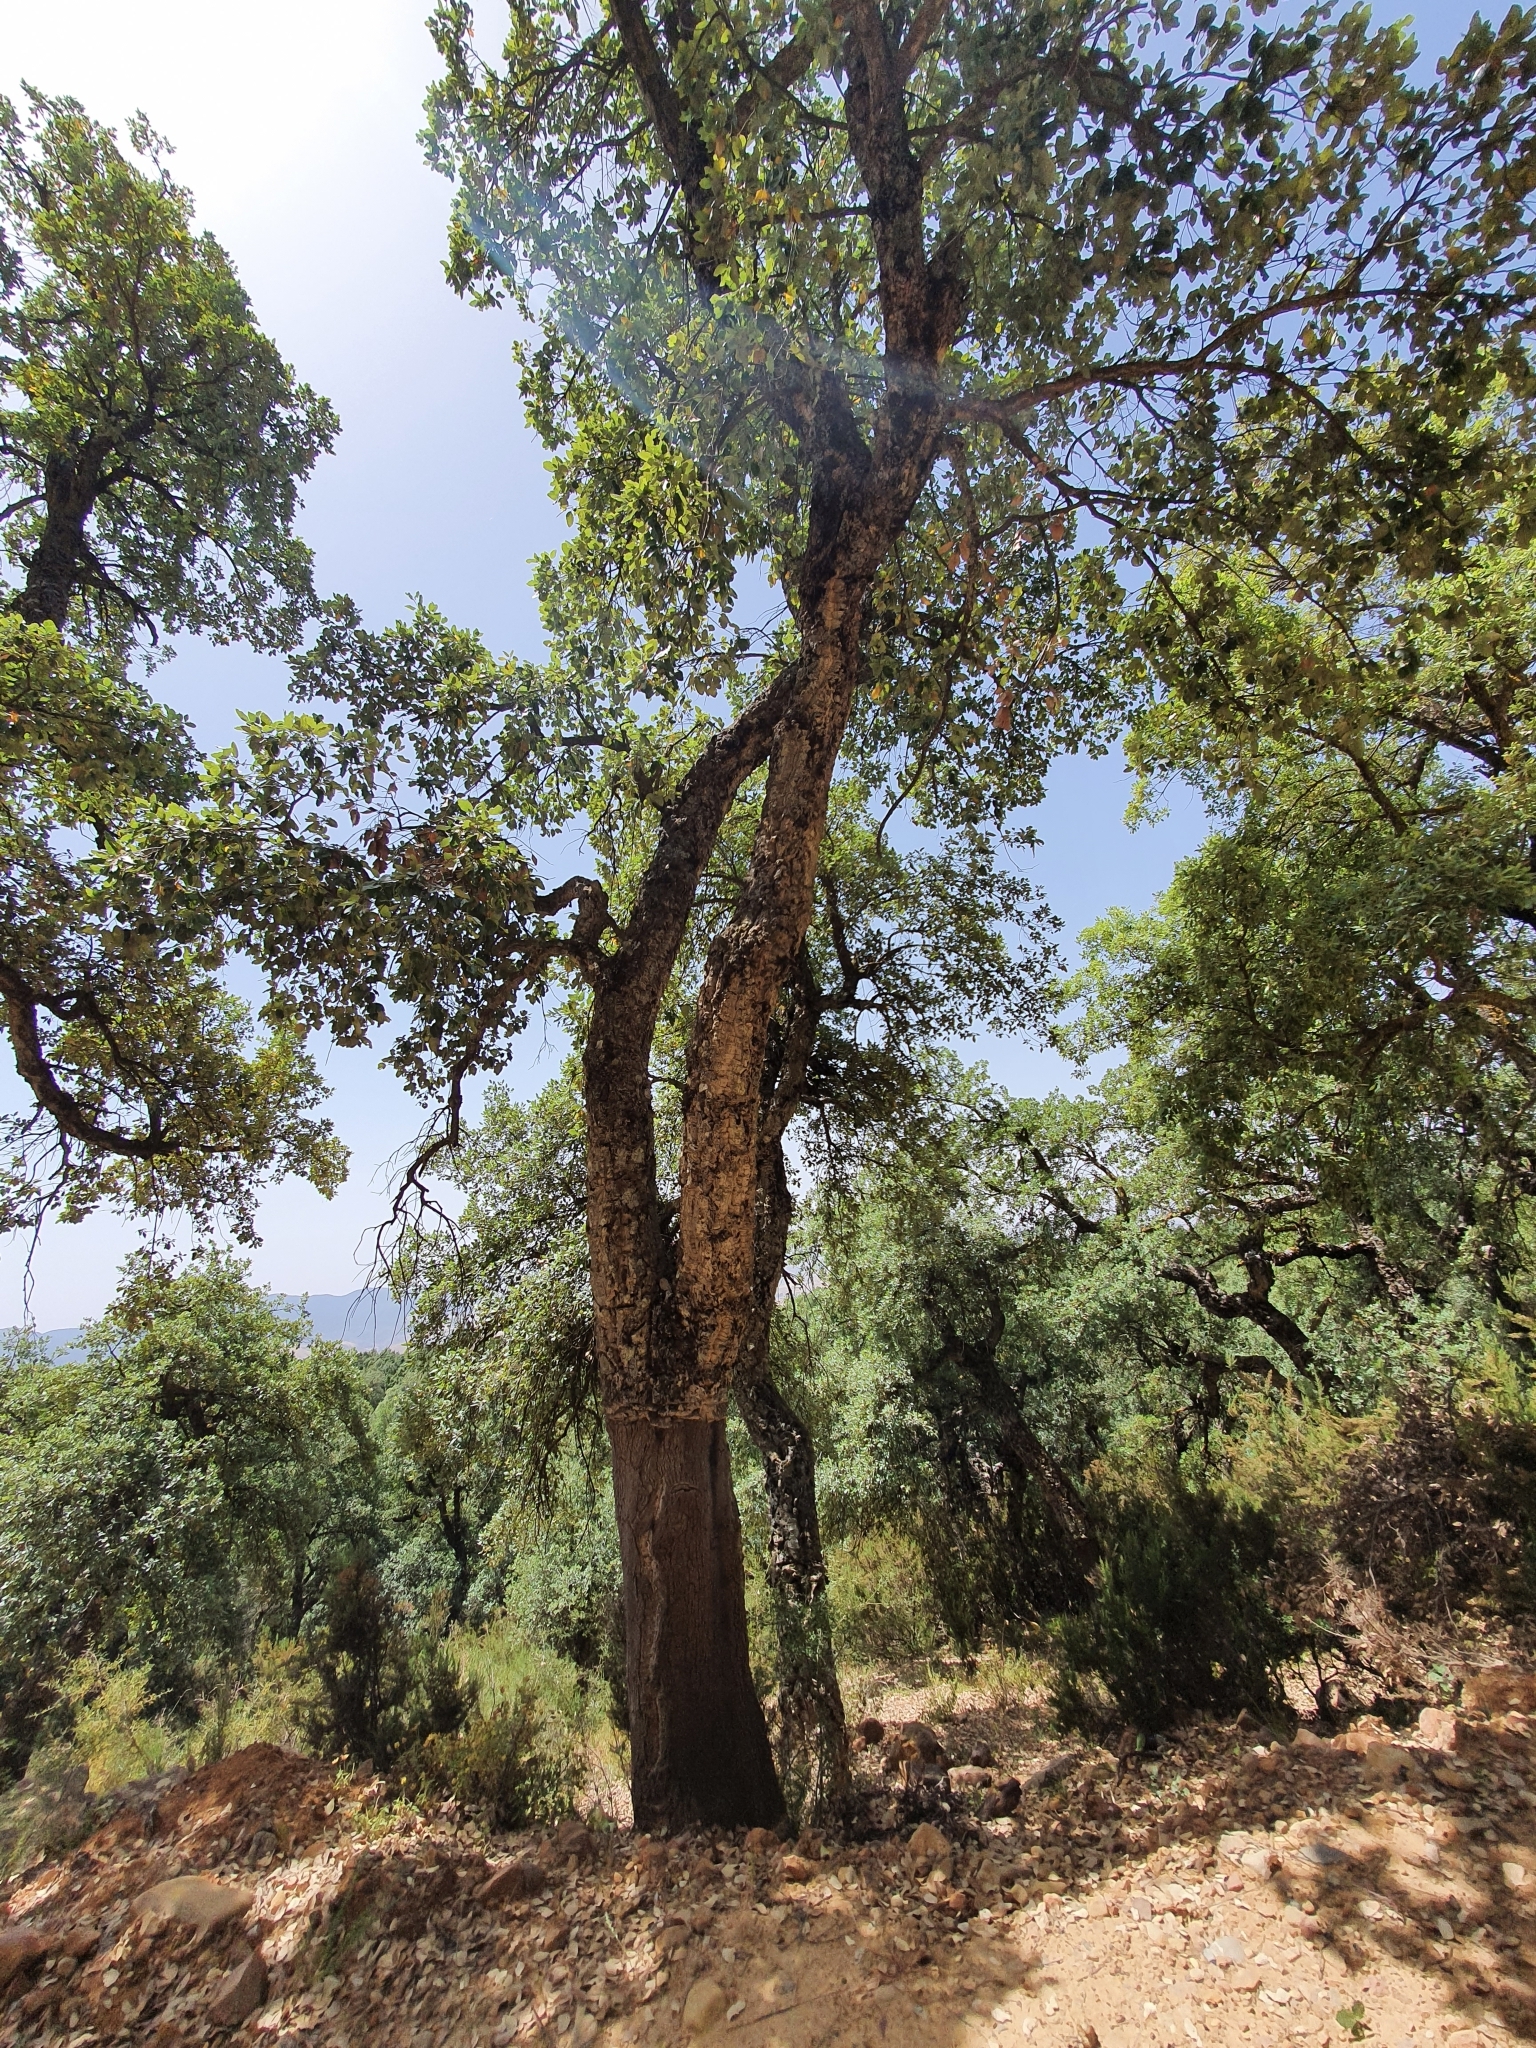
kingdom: Plantae
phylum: Tracheophyta
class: Magnoliopsida
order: Fagales
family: Fagaceae
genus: Quercus
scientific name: Quercus suber
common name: Cork oak
